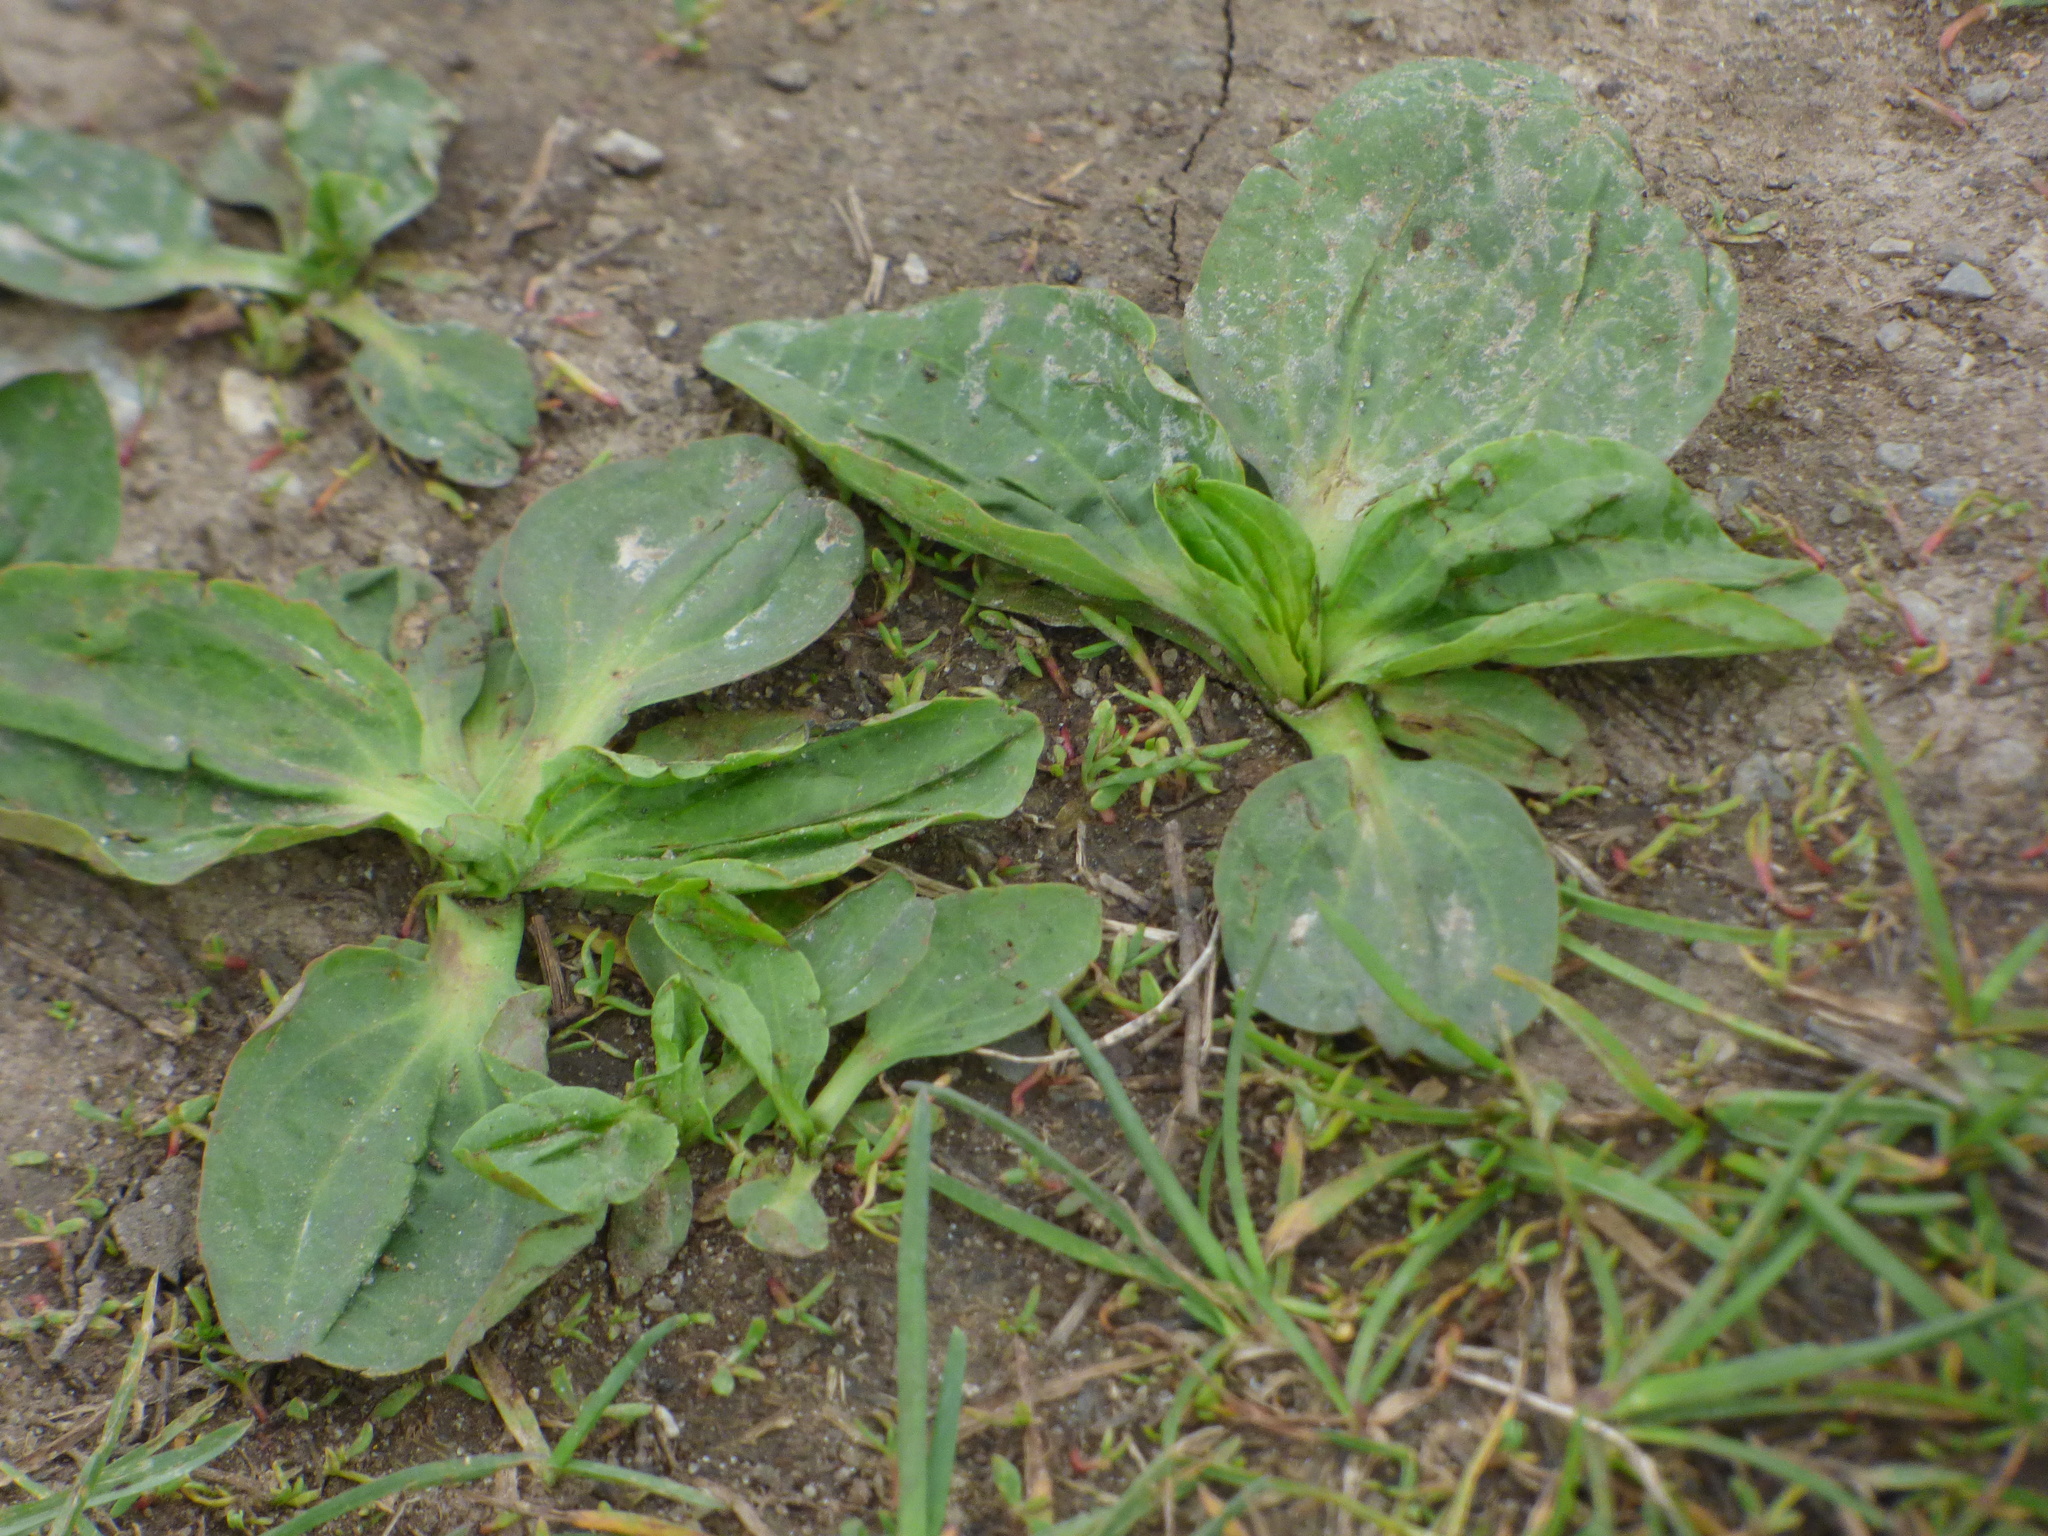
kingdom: Plantae
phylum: Tracheophyta
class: Magnoliopsida
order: Lamiales
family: Plantaginaceae
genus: Plantago
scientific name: Plantago major
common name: Common plantain
